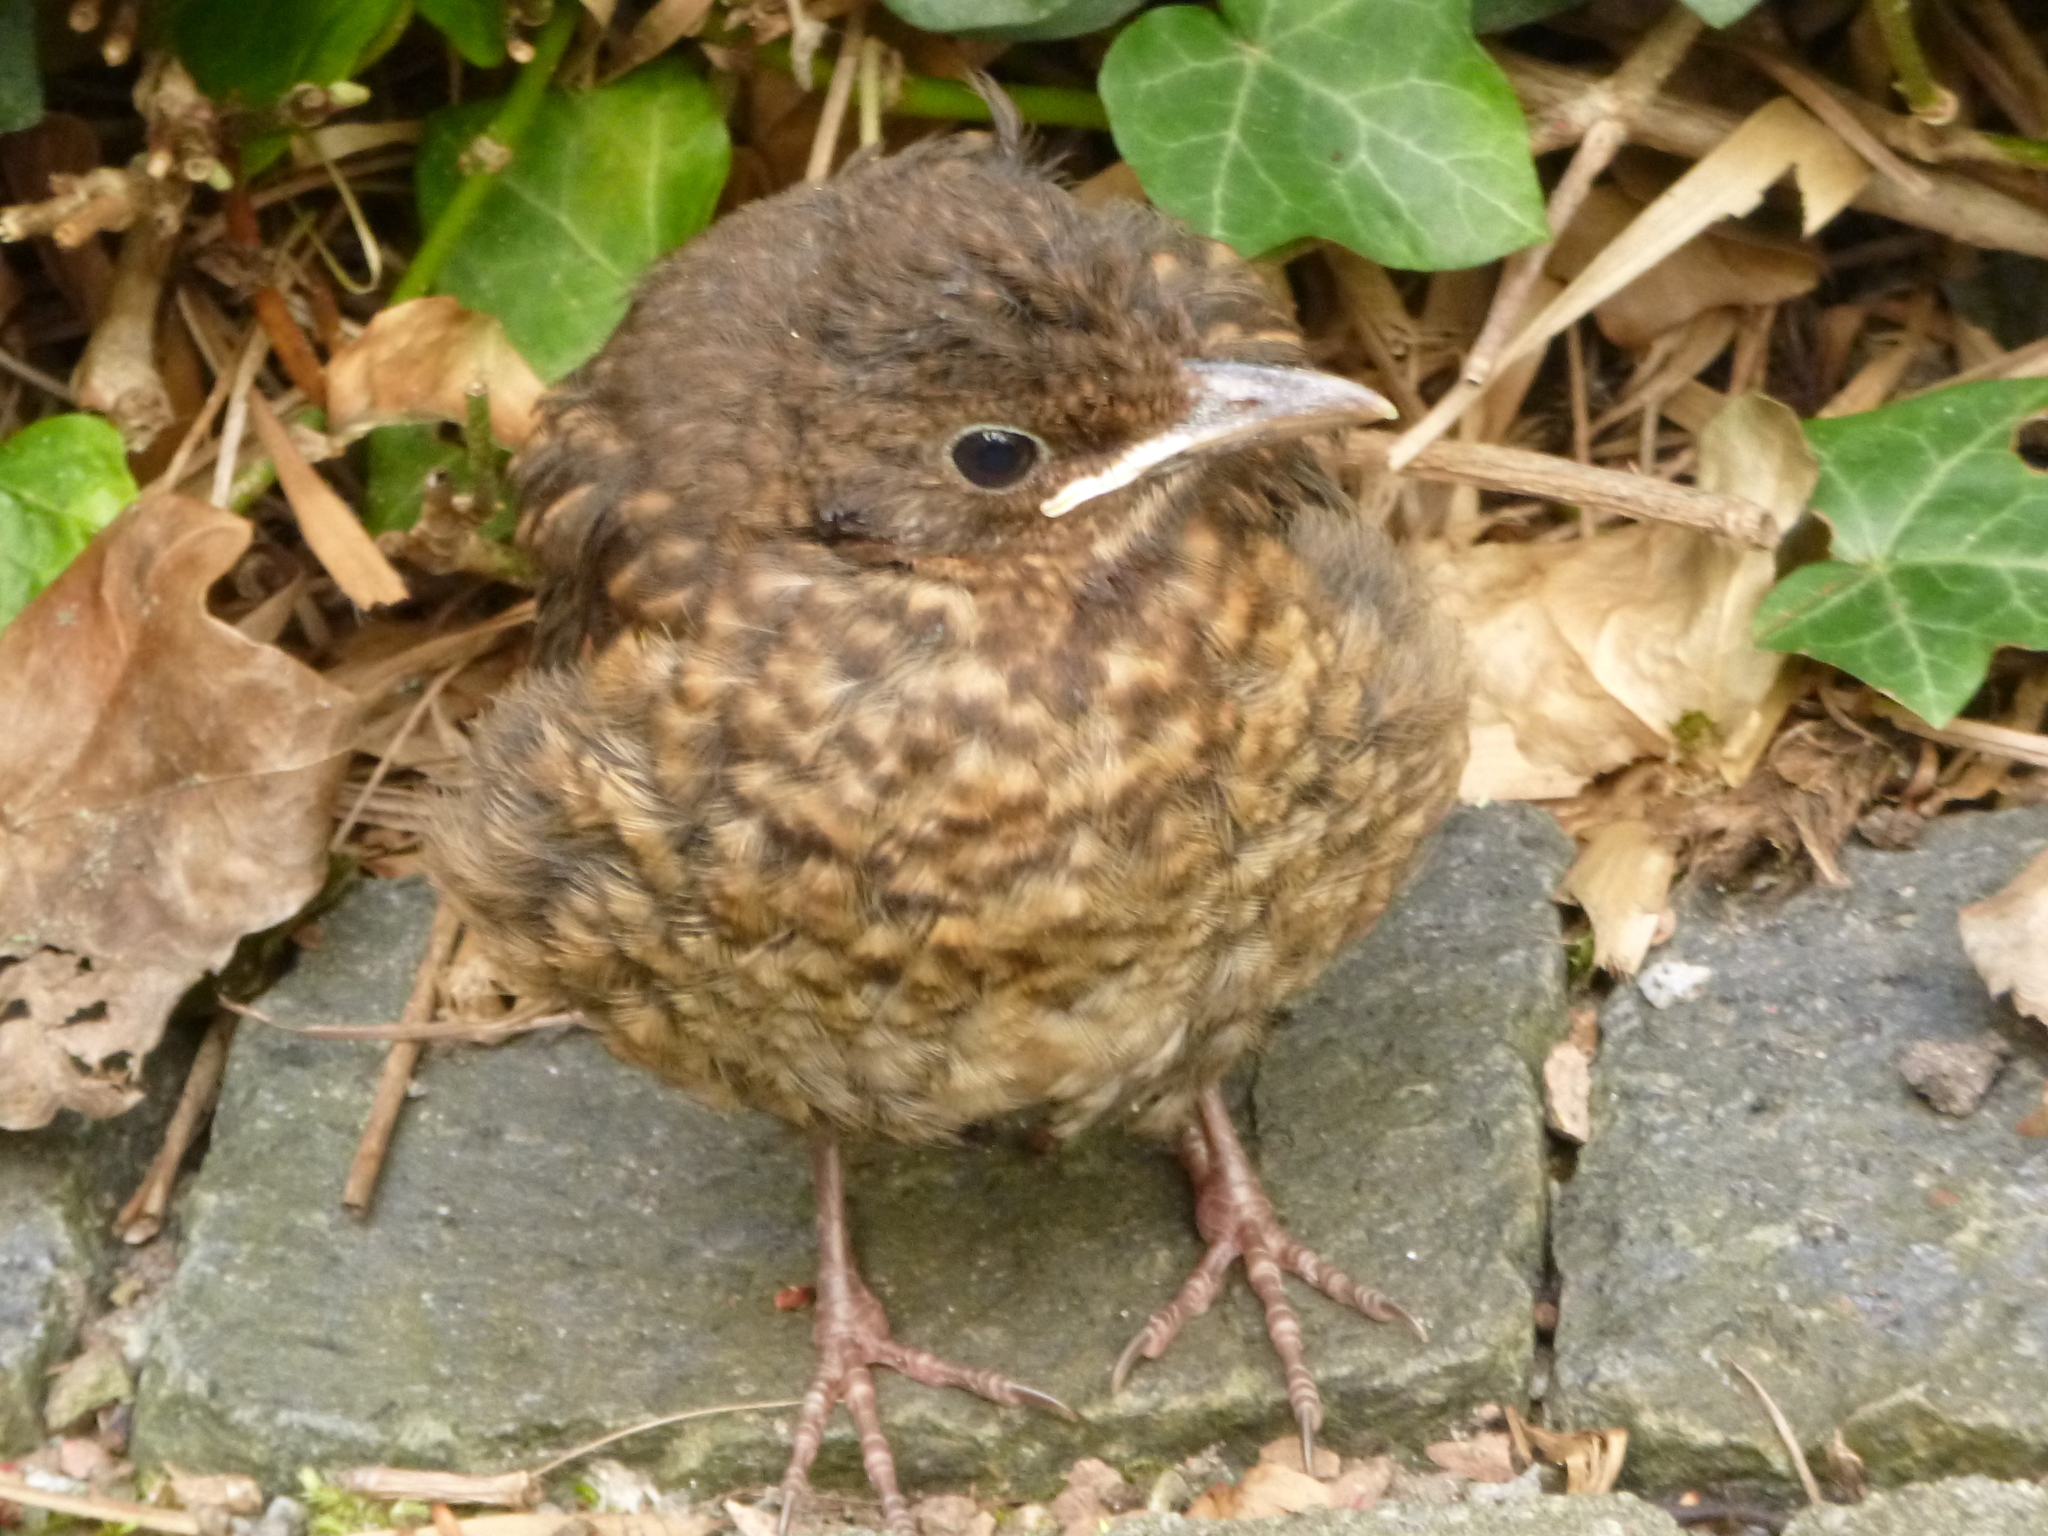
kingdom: Animalia
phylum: Chordata
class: Aves
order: Passeriformes
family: Turdidae
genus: Turdus
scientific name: Turdus merula
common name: Common blackbird
